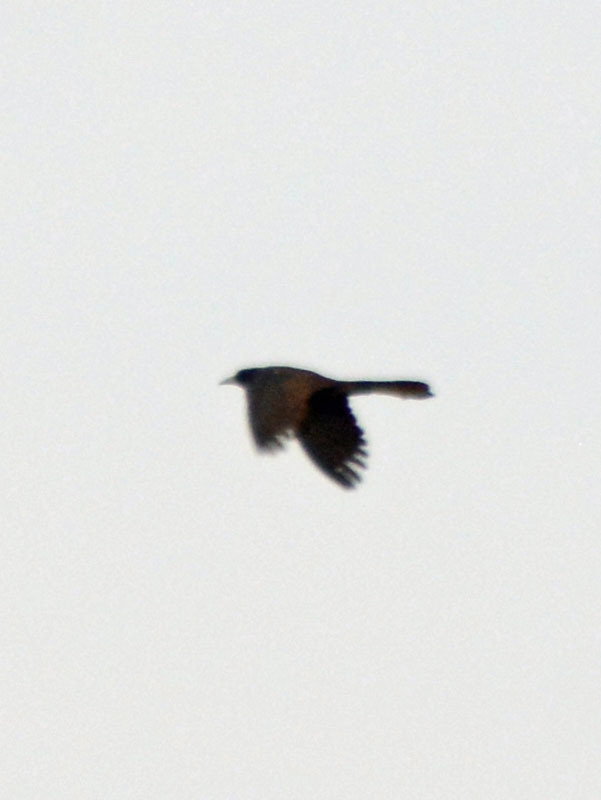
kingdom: Animalia
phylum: Chordata
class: Aves
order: Passeriformes
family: Icteridae
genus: Quiscalus
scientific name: Quiscalus mexicanus
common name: Great-tailed grackle
